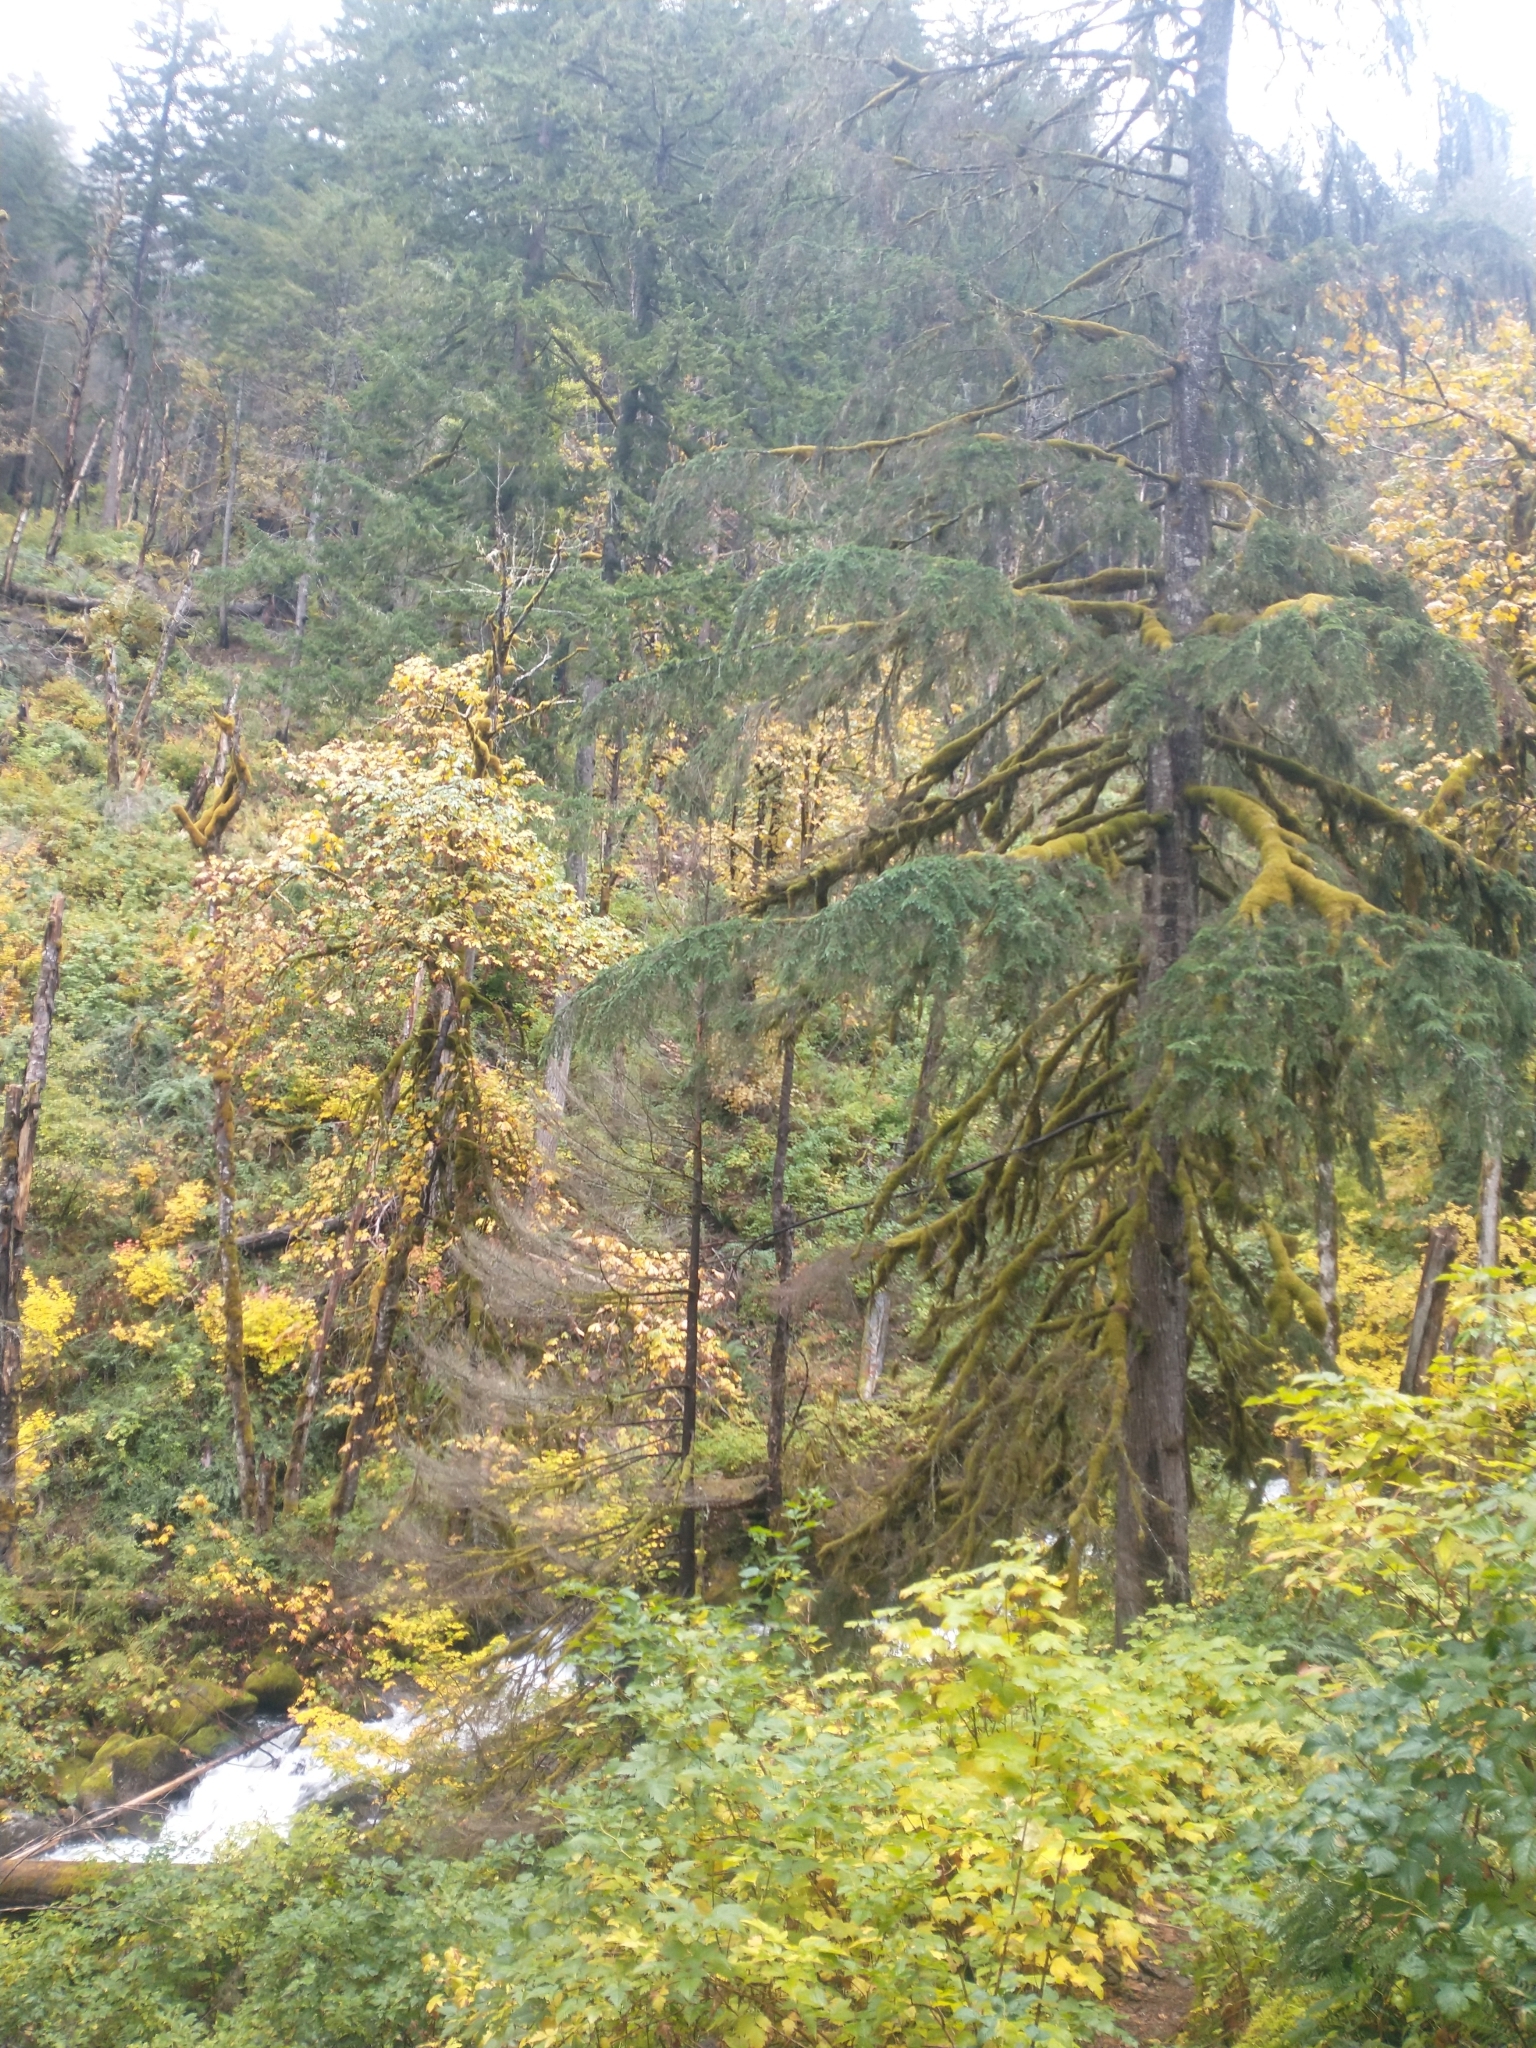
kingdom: Plantae
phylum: Tracheophyta
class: Pinopsida
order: Pinales
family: Pinaceae
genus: Tsuga
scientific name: Tsuga heterophylla
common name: Western hemlock
